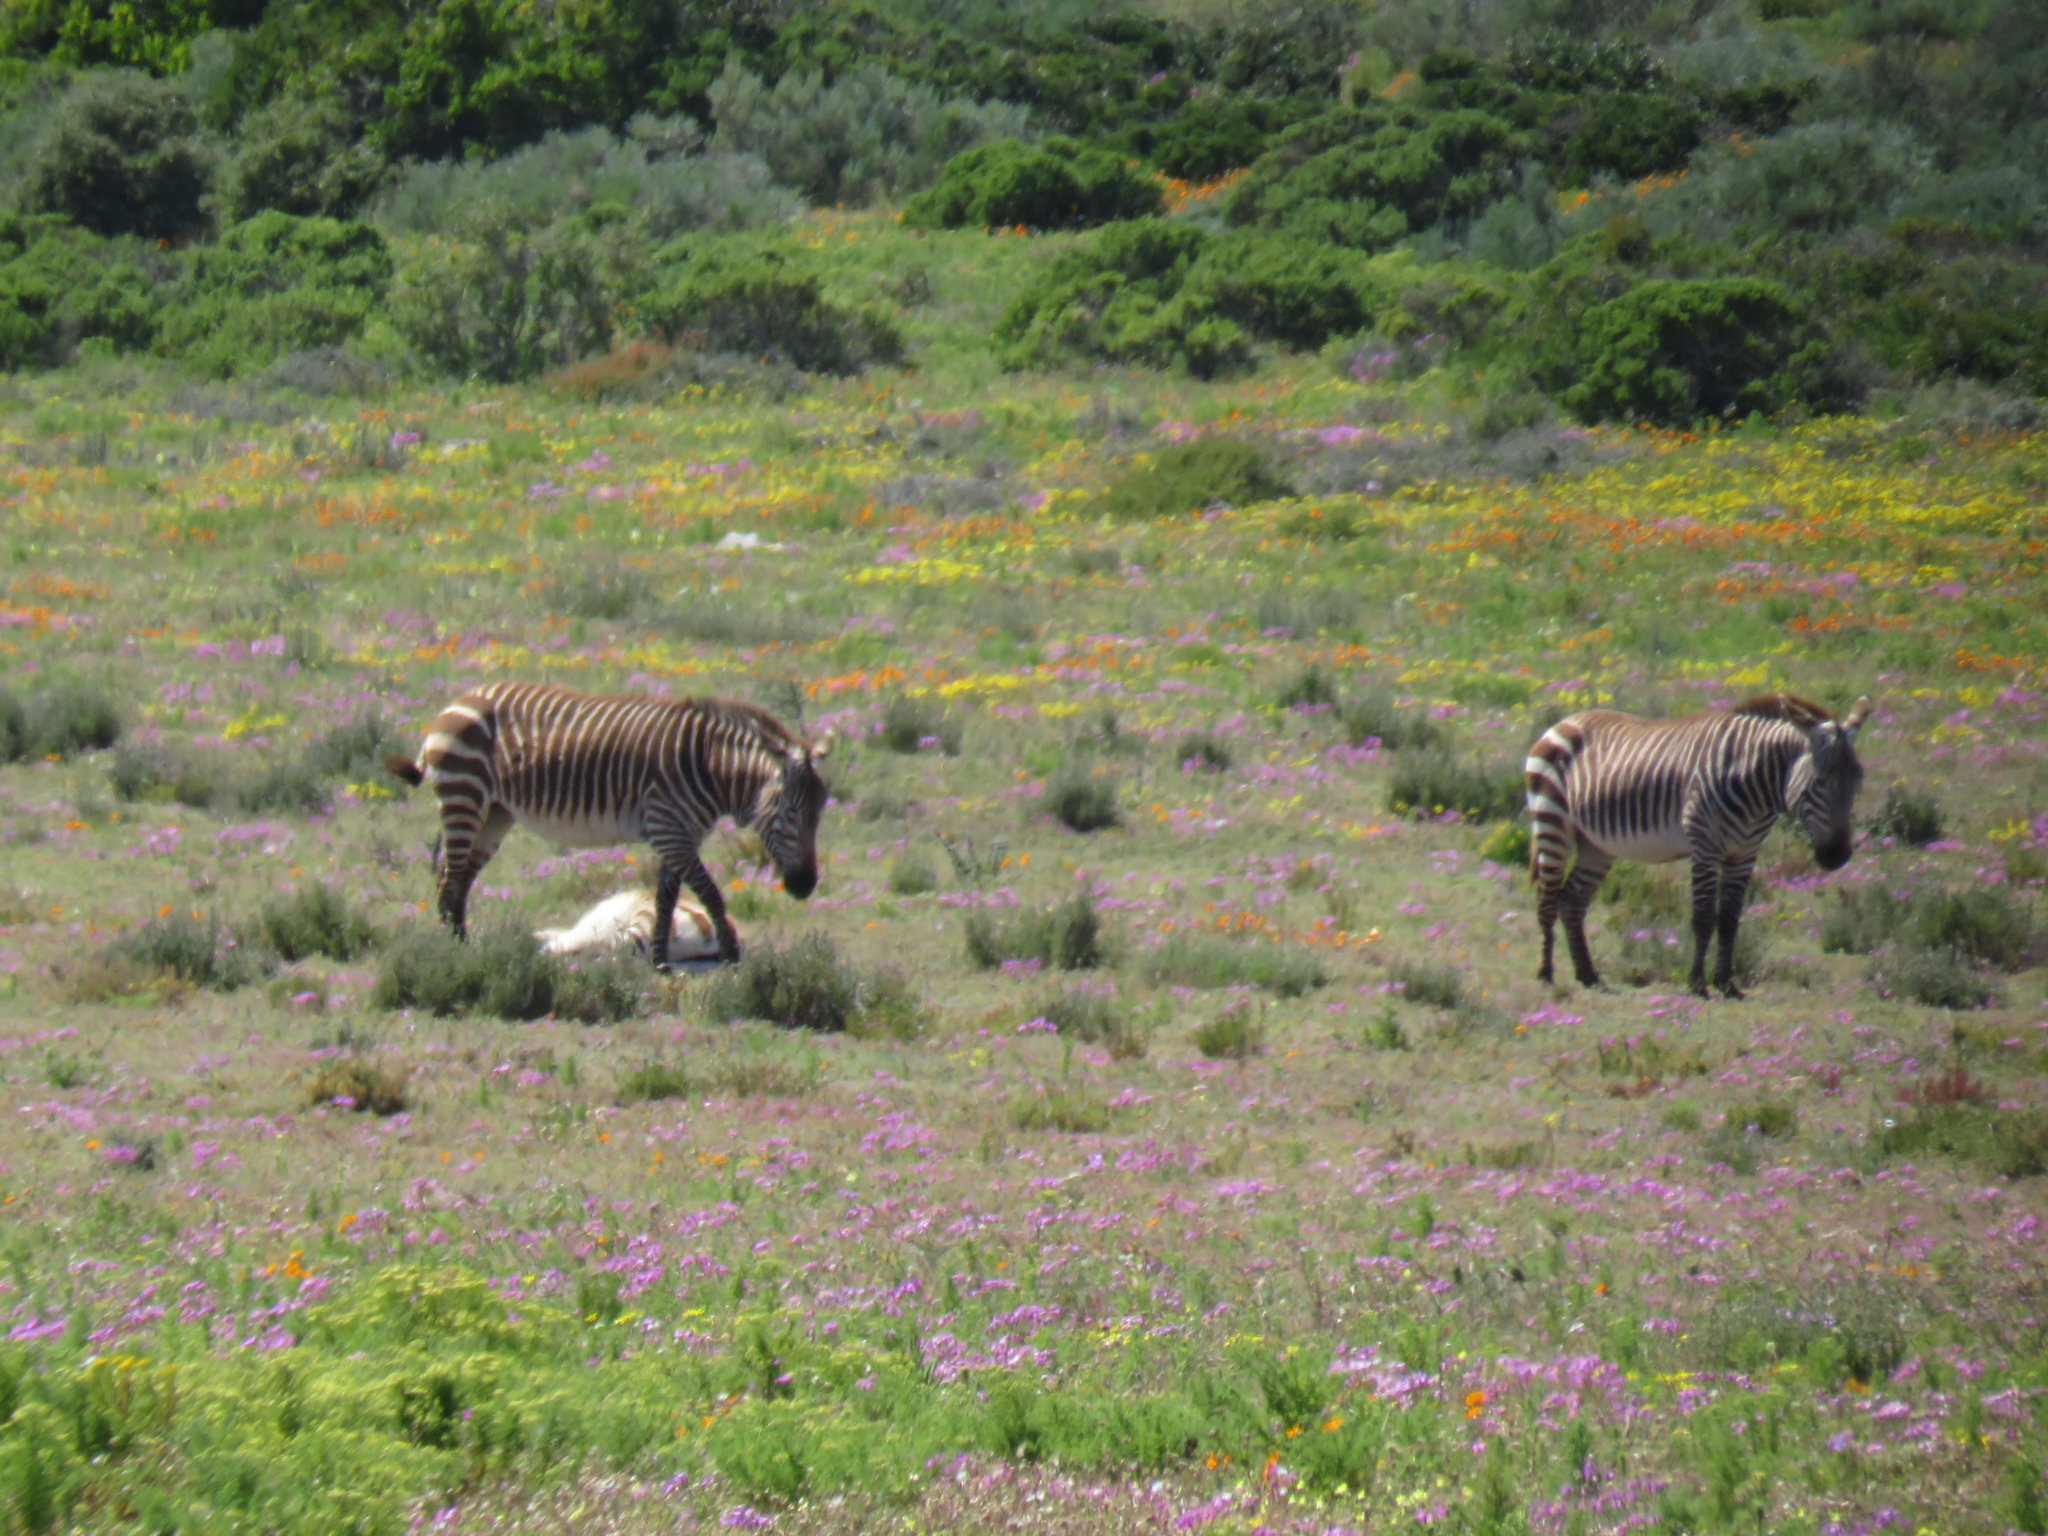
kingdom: Animalia
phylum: Chordata
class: Mammalia
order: Perissodactyla
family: Equidae
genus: Equus
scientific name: Equus zebra
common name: Mountain zebra
